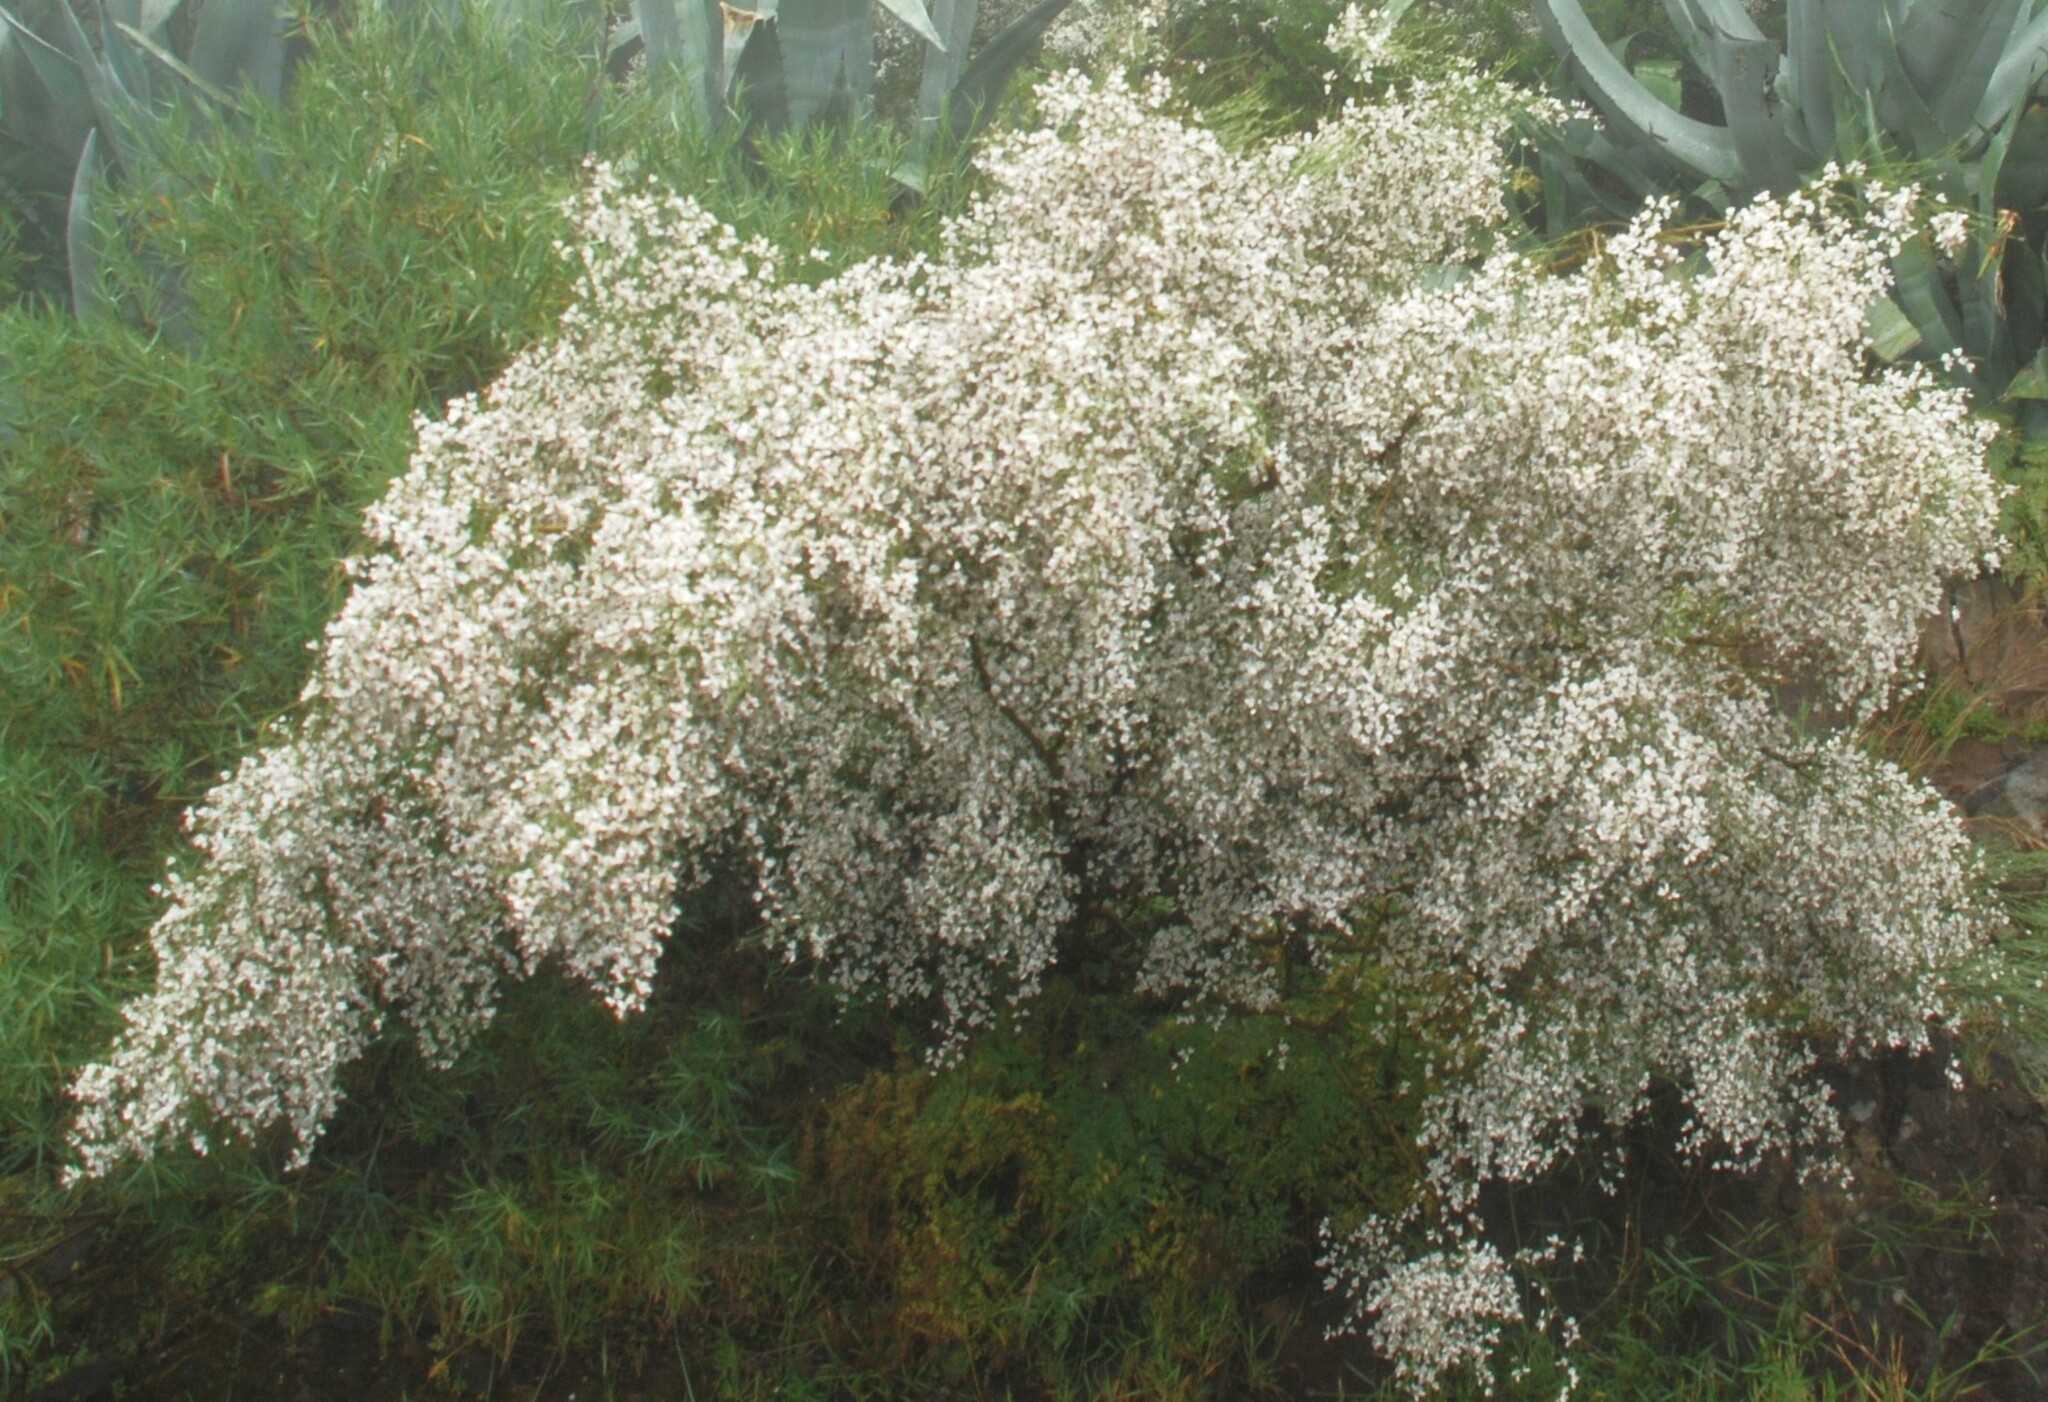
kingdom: Plantae
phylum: Tracheophyta
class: Magnoliopsida
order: Fabales
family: Fabaceae
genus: Retama
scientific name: Retama rhodorhizoides
